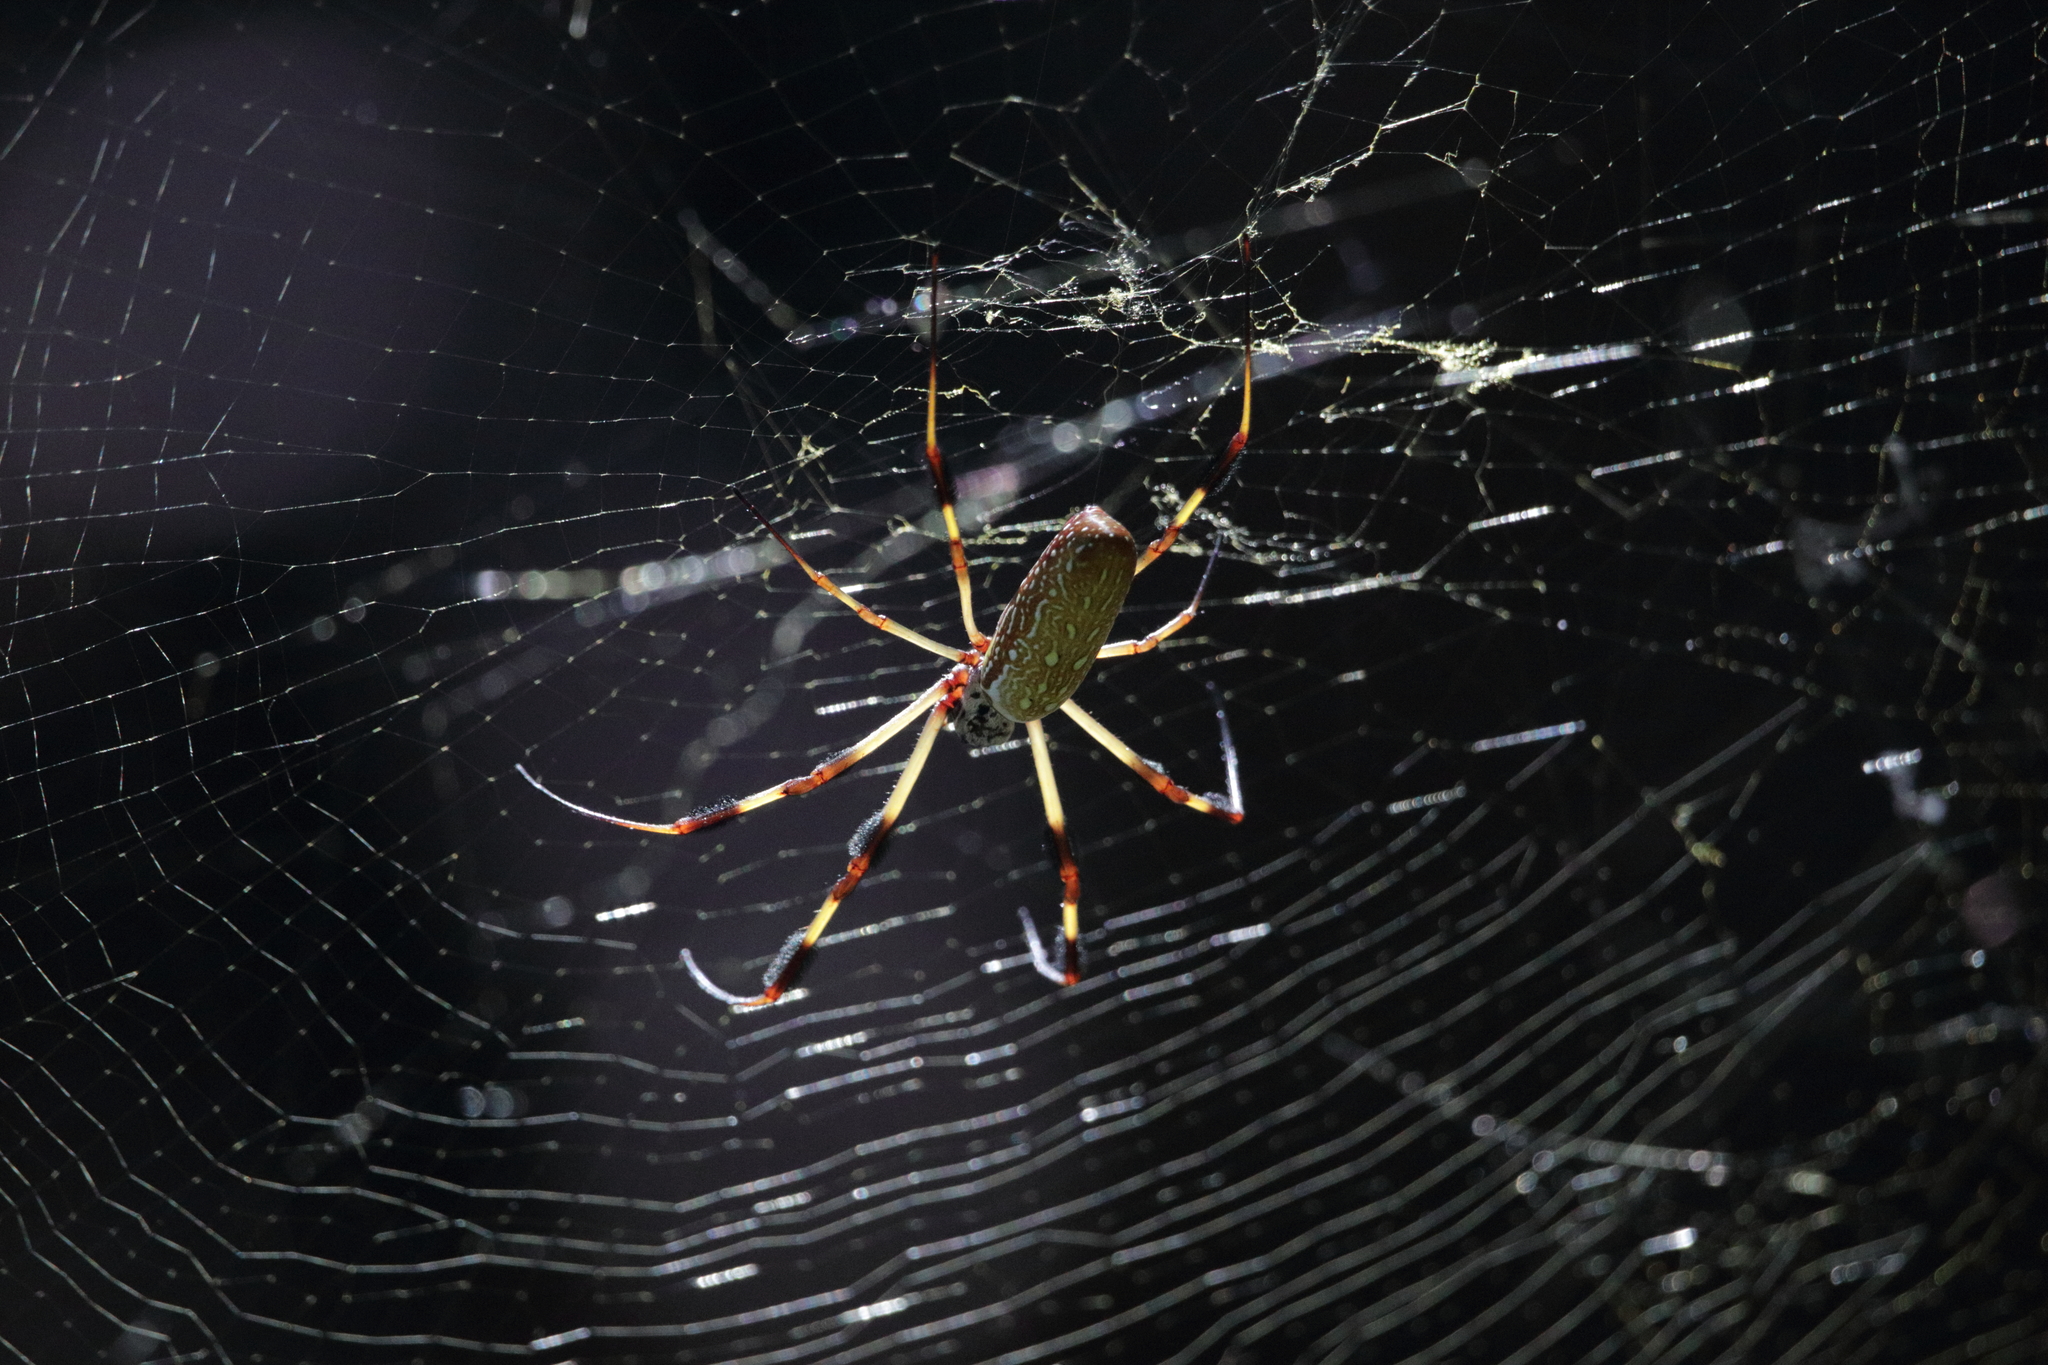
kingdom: Animalia
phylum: Arthropoda
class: Arachnida
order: Araneae
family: Araneidae
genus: Trichonephila
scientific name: Trichonephila clavipes
